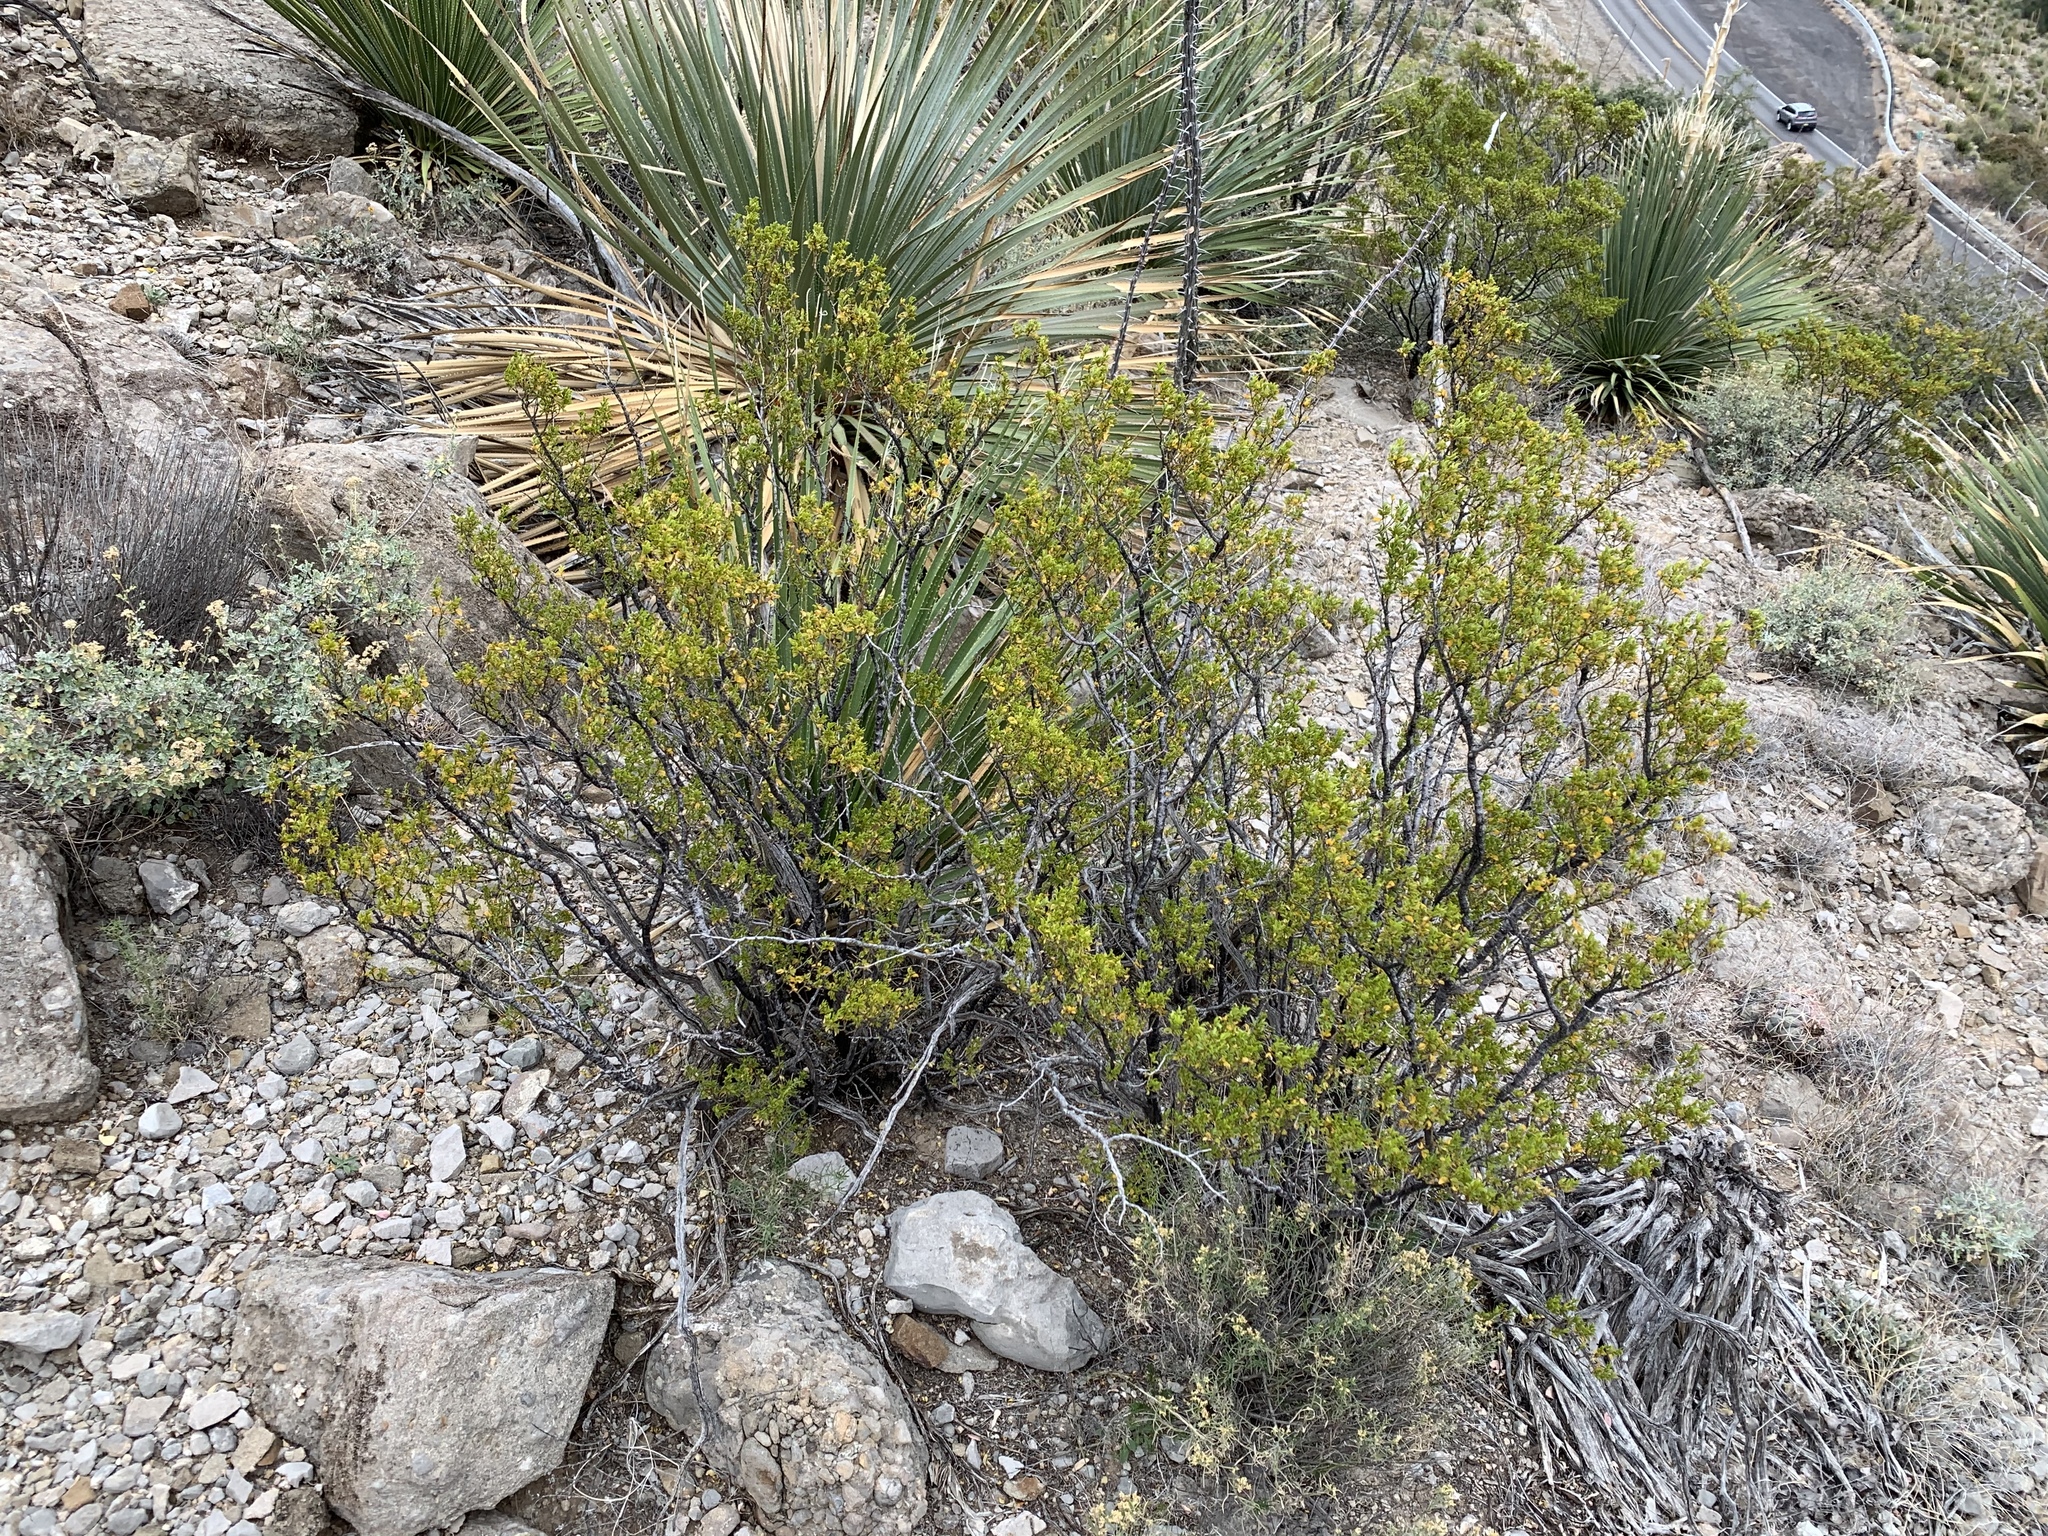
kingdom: Plantae
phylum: Tracheophyta
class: Magnoliopsida
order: Zygophyllales
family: Zygophyllaceae
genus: Larrea
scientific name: Larrea tridentata
